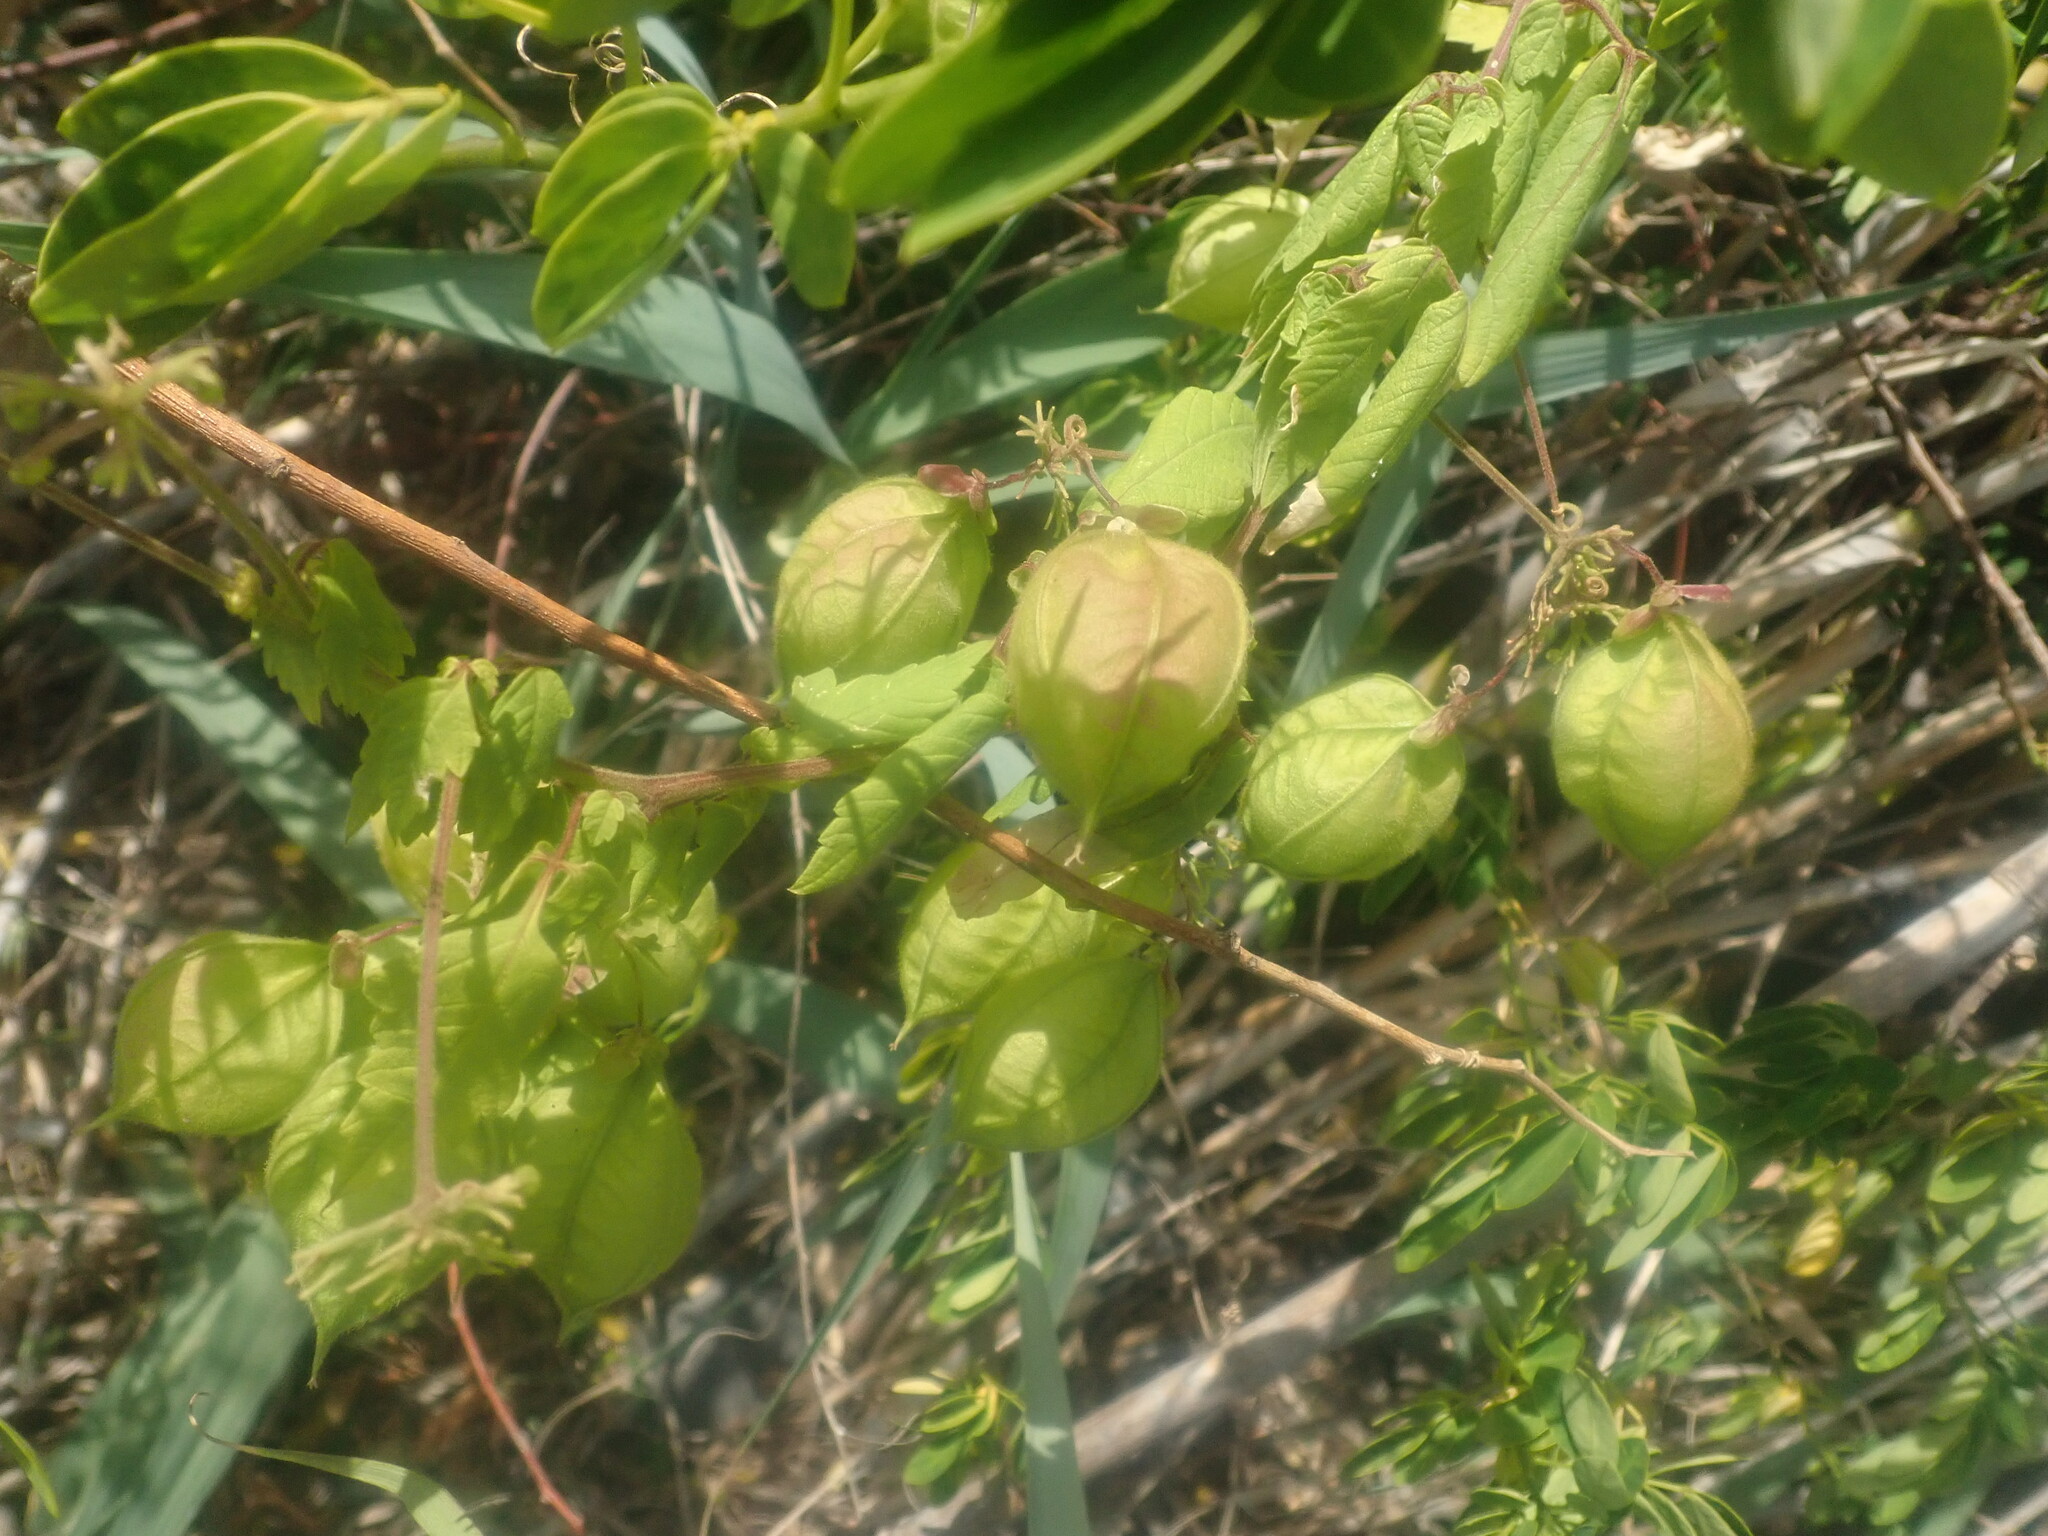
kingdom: Plantae
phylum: Tracheophyta
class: Magnoliopsida
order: Sapindales
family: Sapindaceae
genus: Cardiospermum
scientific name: Cardiospermum grandiflorum
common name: Balloon vine
